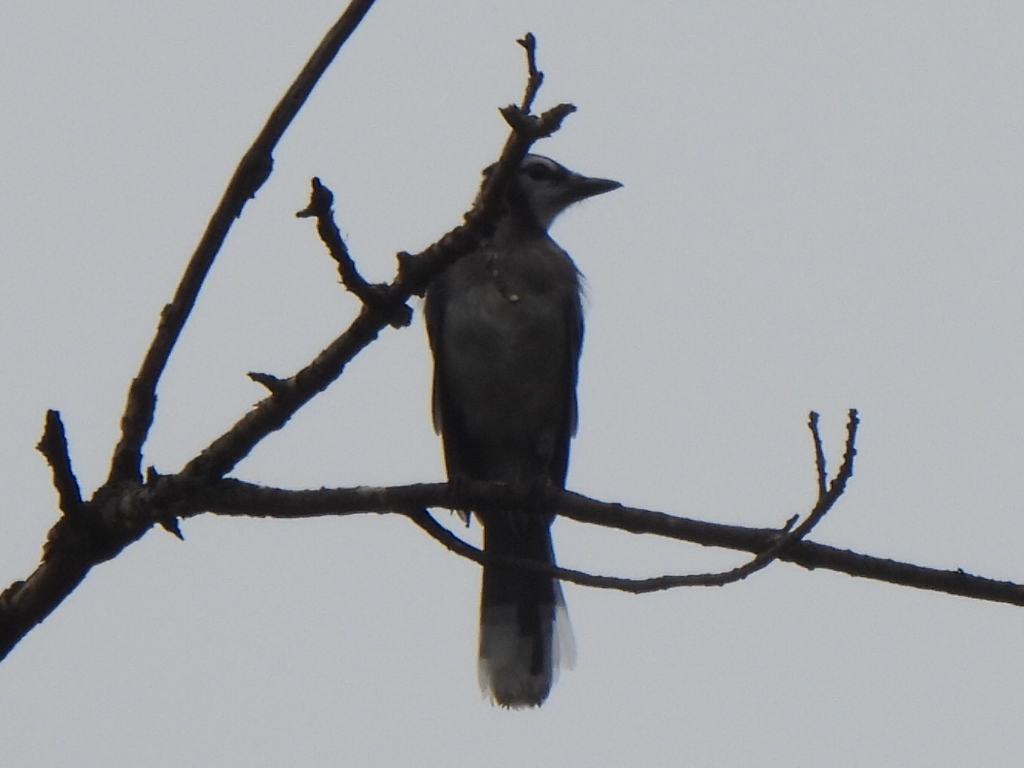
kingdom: Animalia
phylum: Chordata
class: Aves
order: Passeriformes
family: Corvidae
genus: Cyanocitta
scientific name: Cyanocitta cristata
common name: Blue jay
